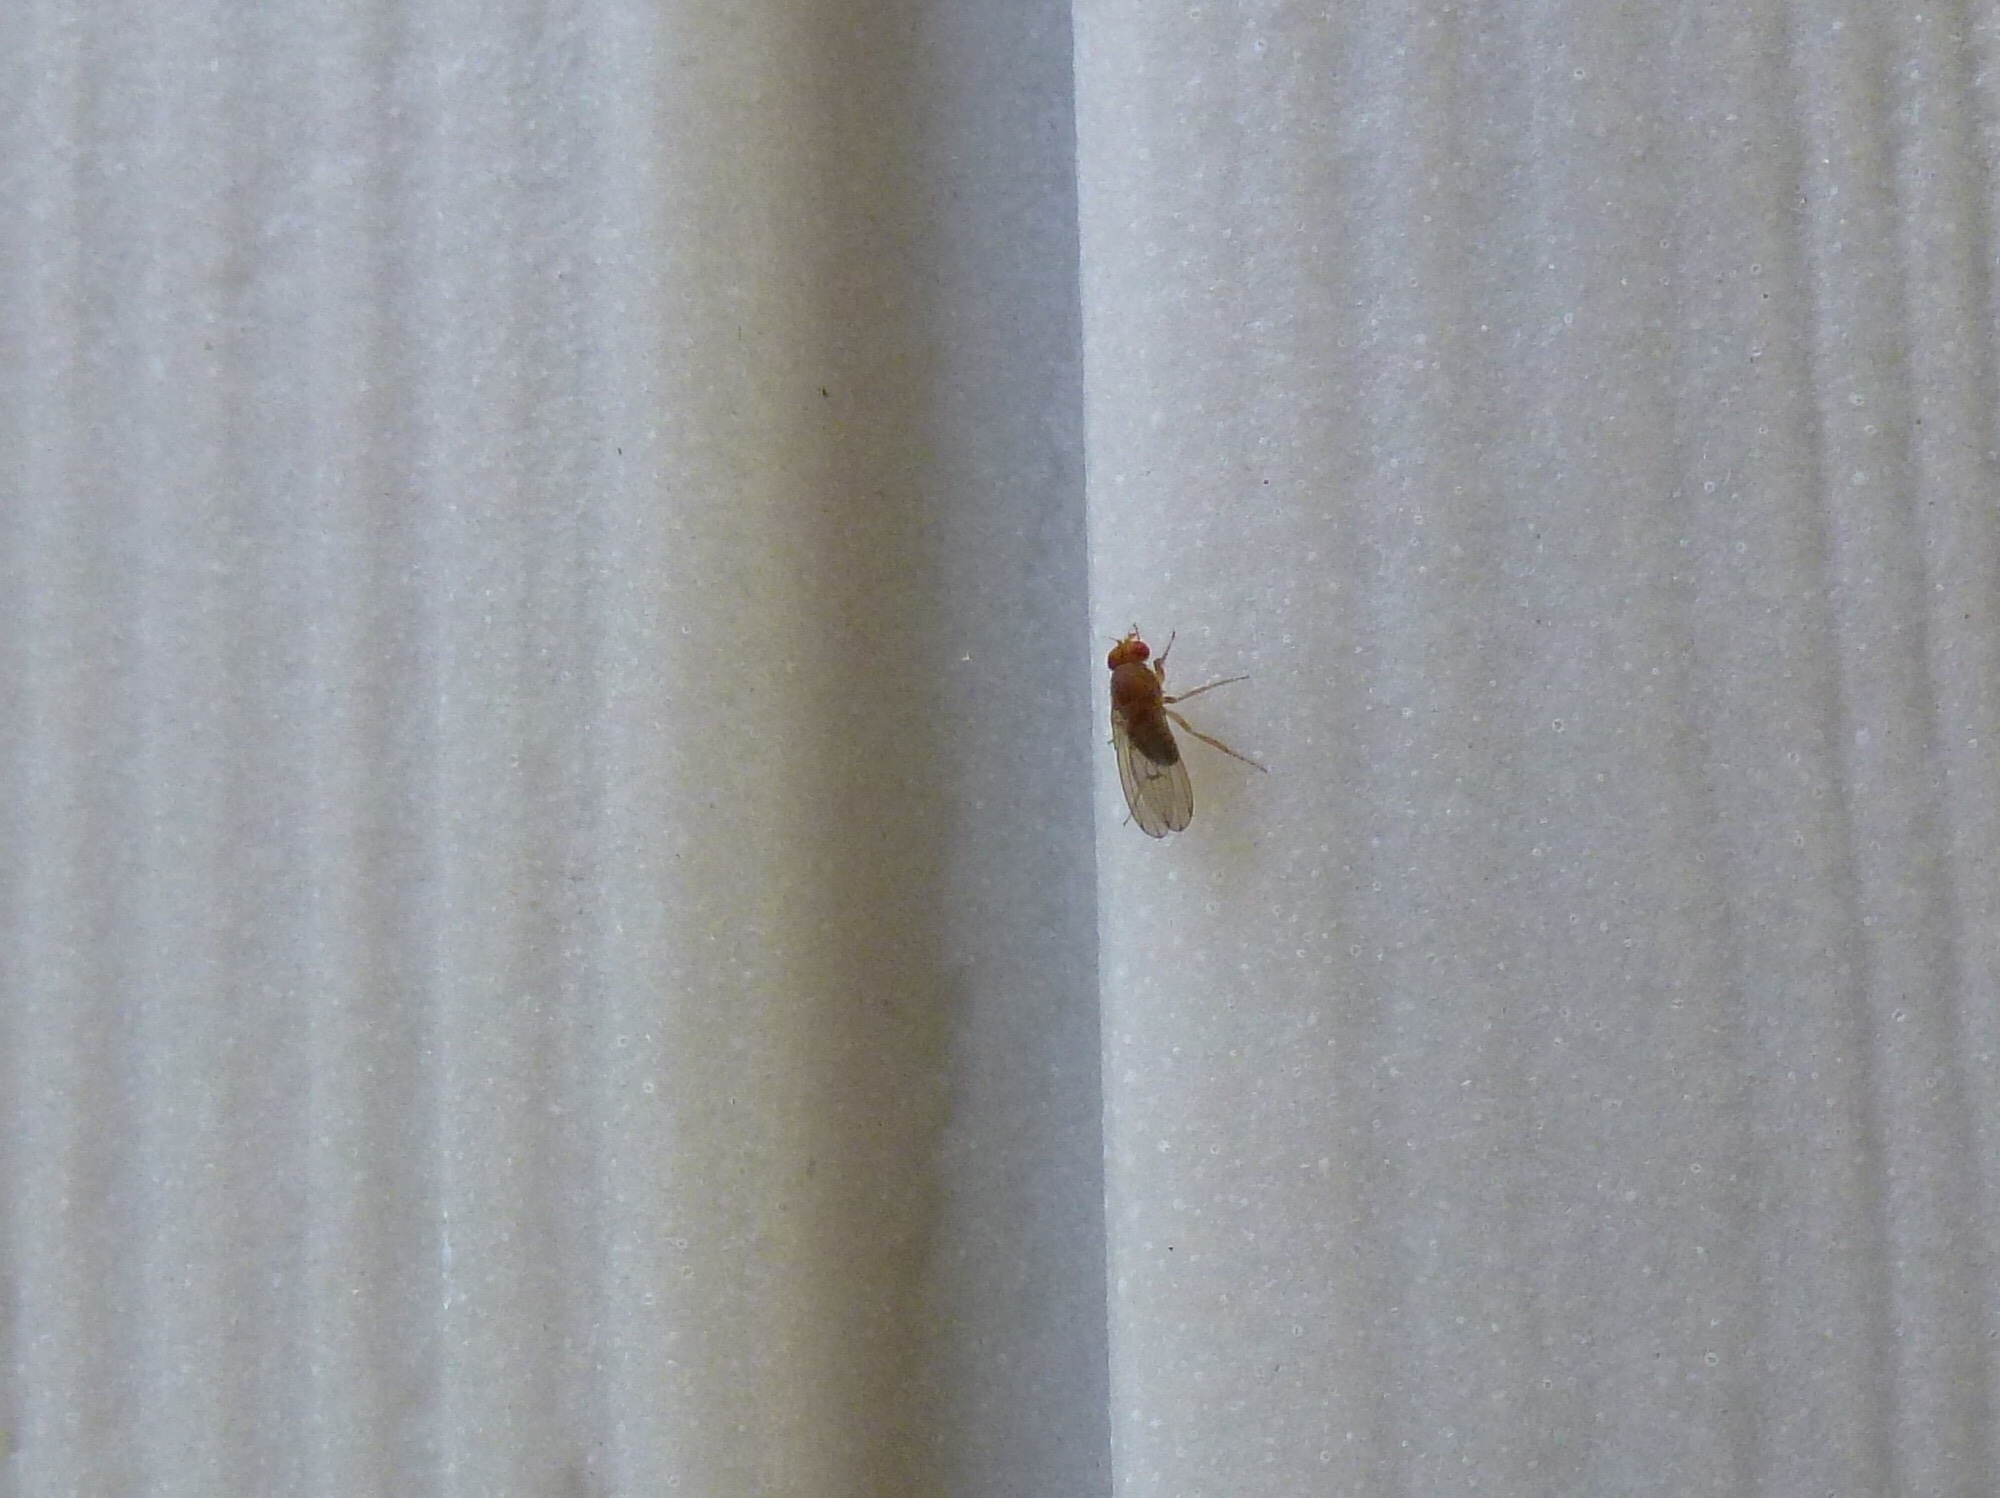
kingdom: Animalia
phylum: Arthropoda
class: Insecta
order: Diptera
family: Drosophilidae
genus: Drosophila
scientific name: Drosophila immigrans
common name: Pomace fly
